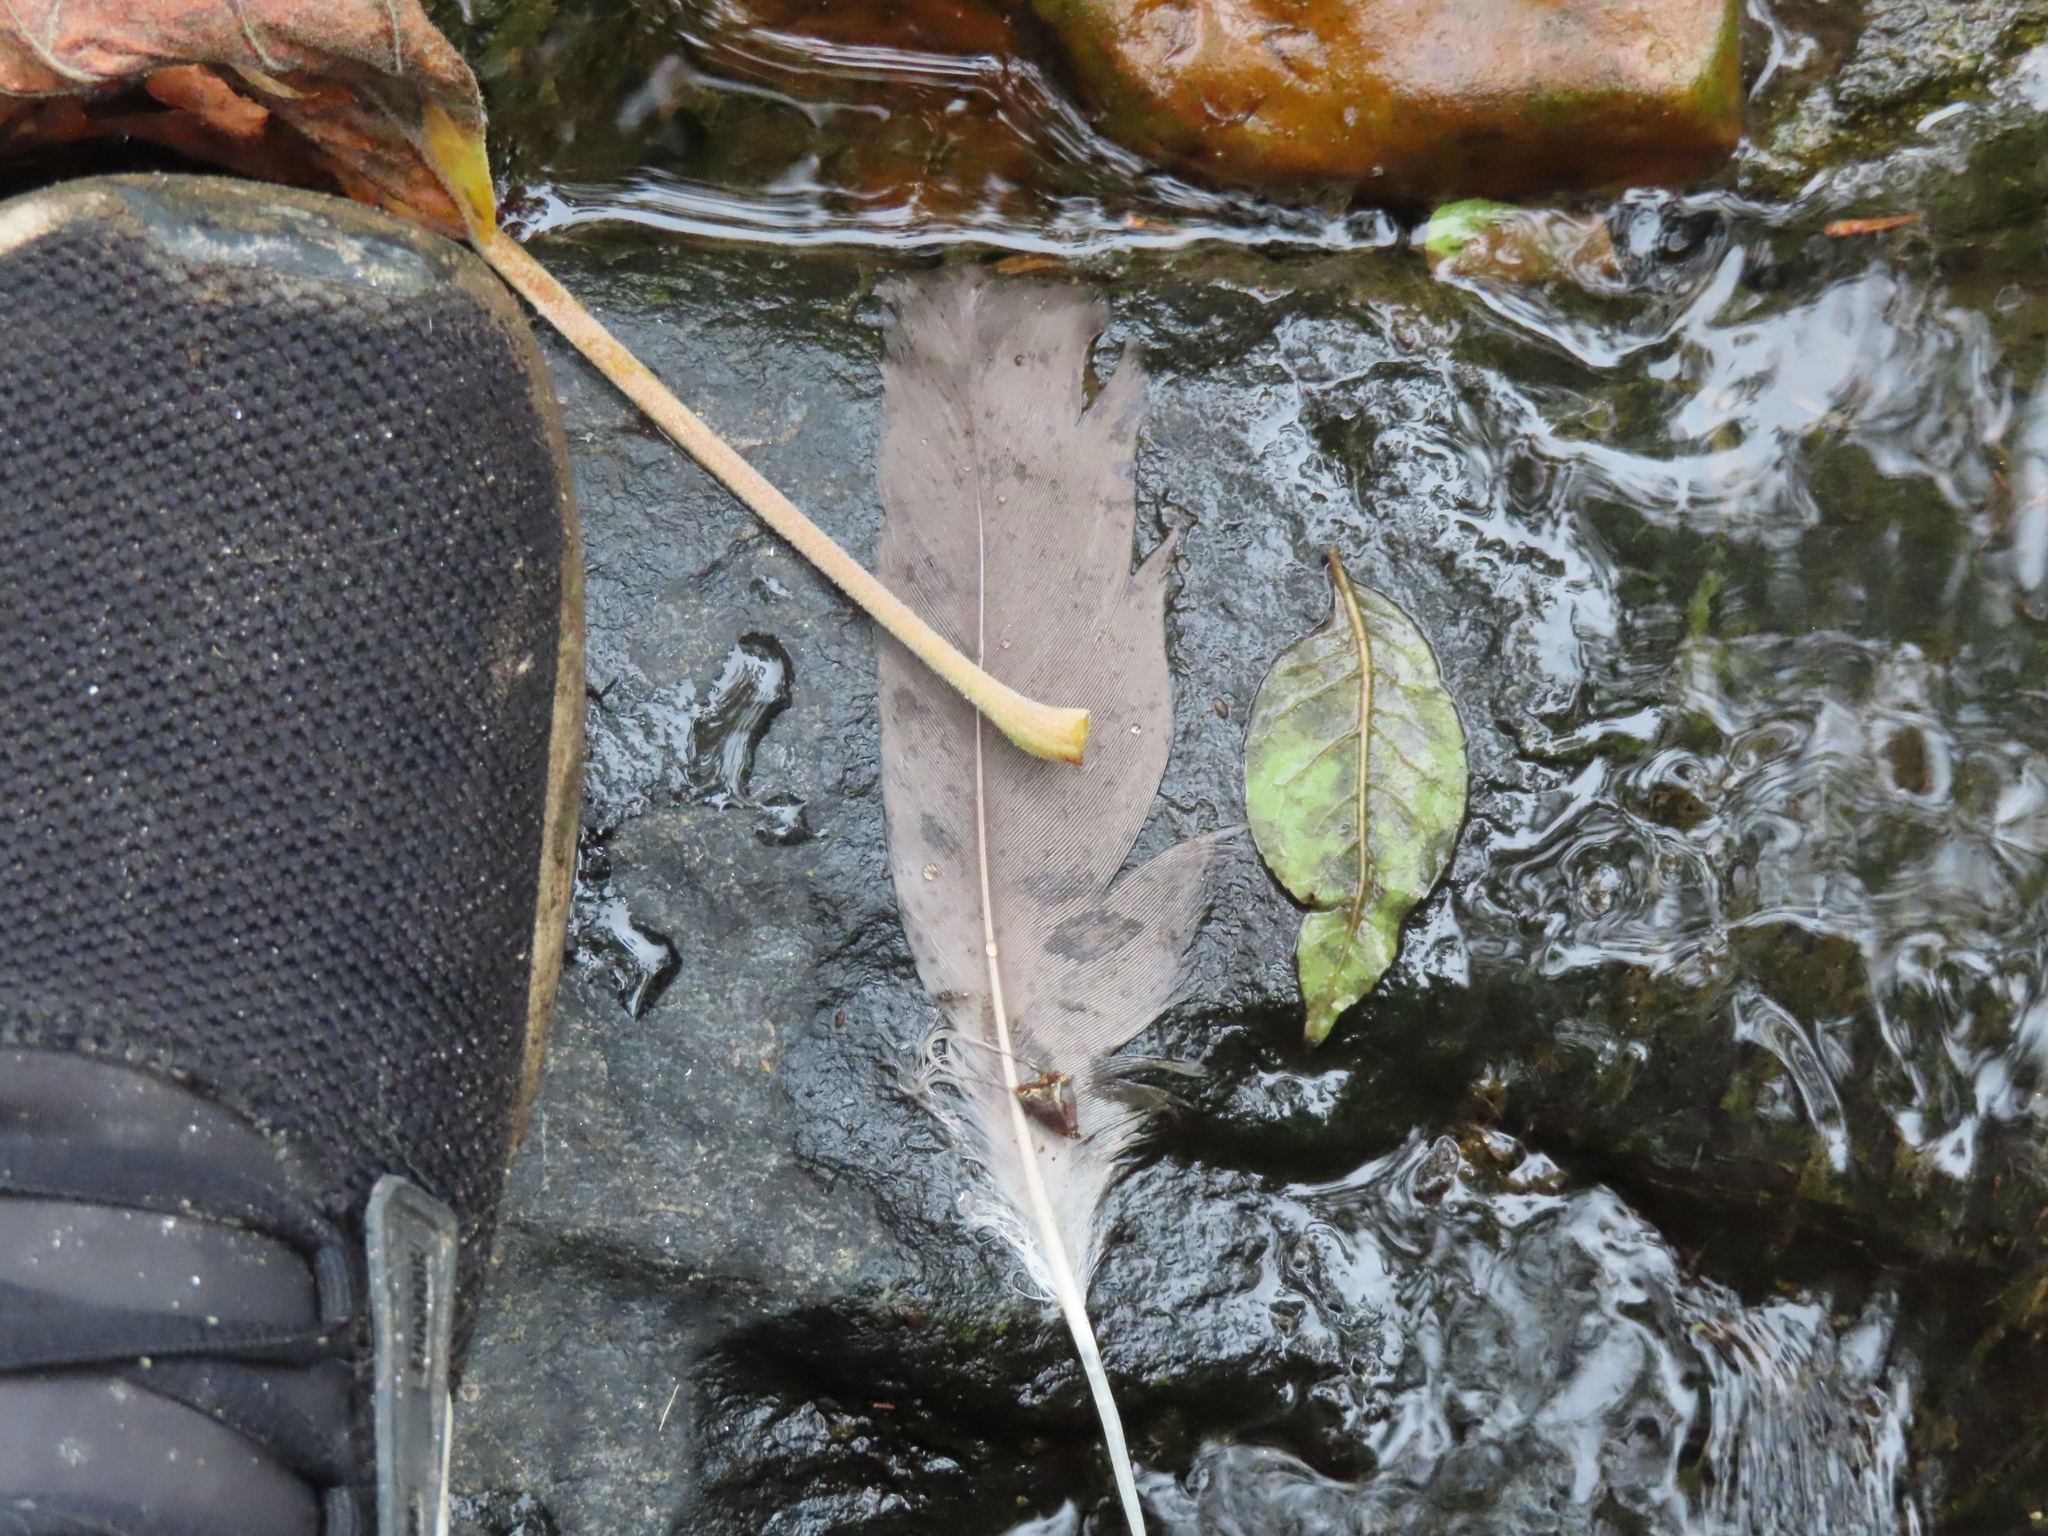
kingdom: Animalia
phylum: Chordata
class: Aves
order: Anseriformes
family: Anatidae
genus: Branta
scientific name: Branta canadensis
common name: Canada goose
